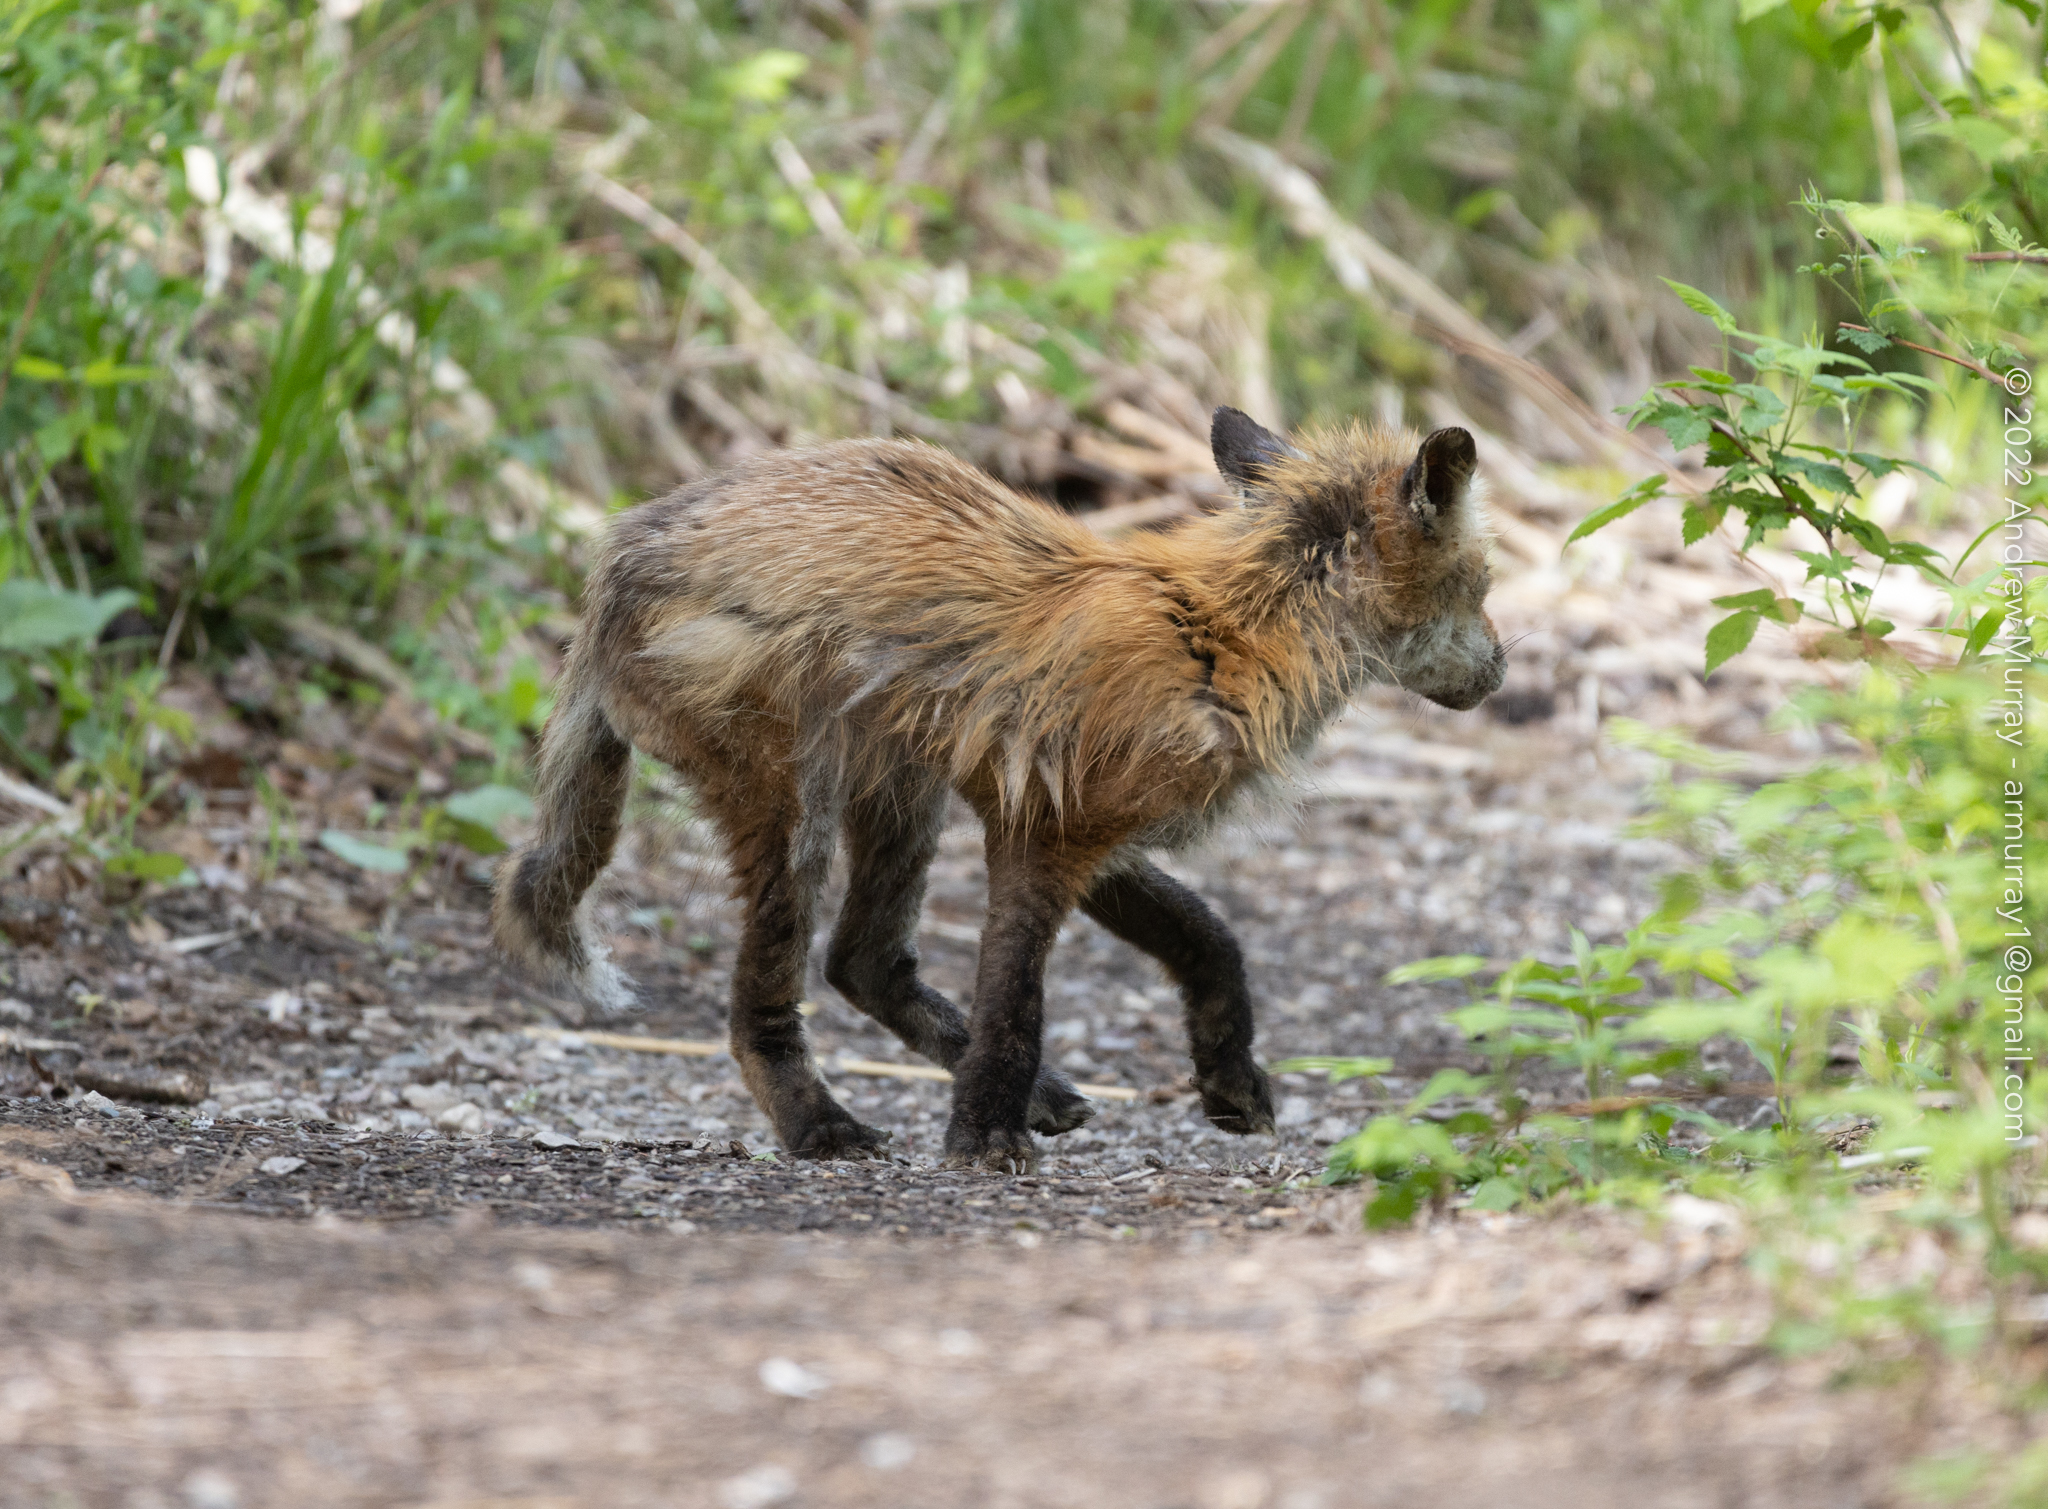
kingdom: Animalia
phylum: Chordata
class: Mammalia
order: Carnivora
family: Canidae
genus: Vulpes
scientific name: Vulpes vulpes
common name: Red fox
